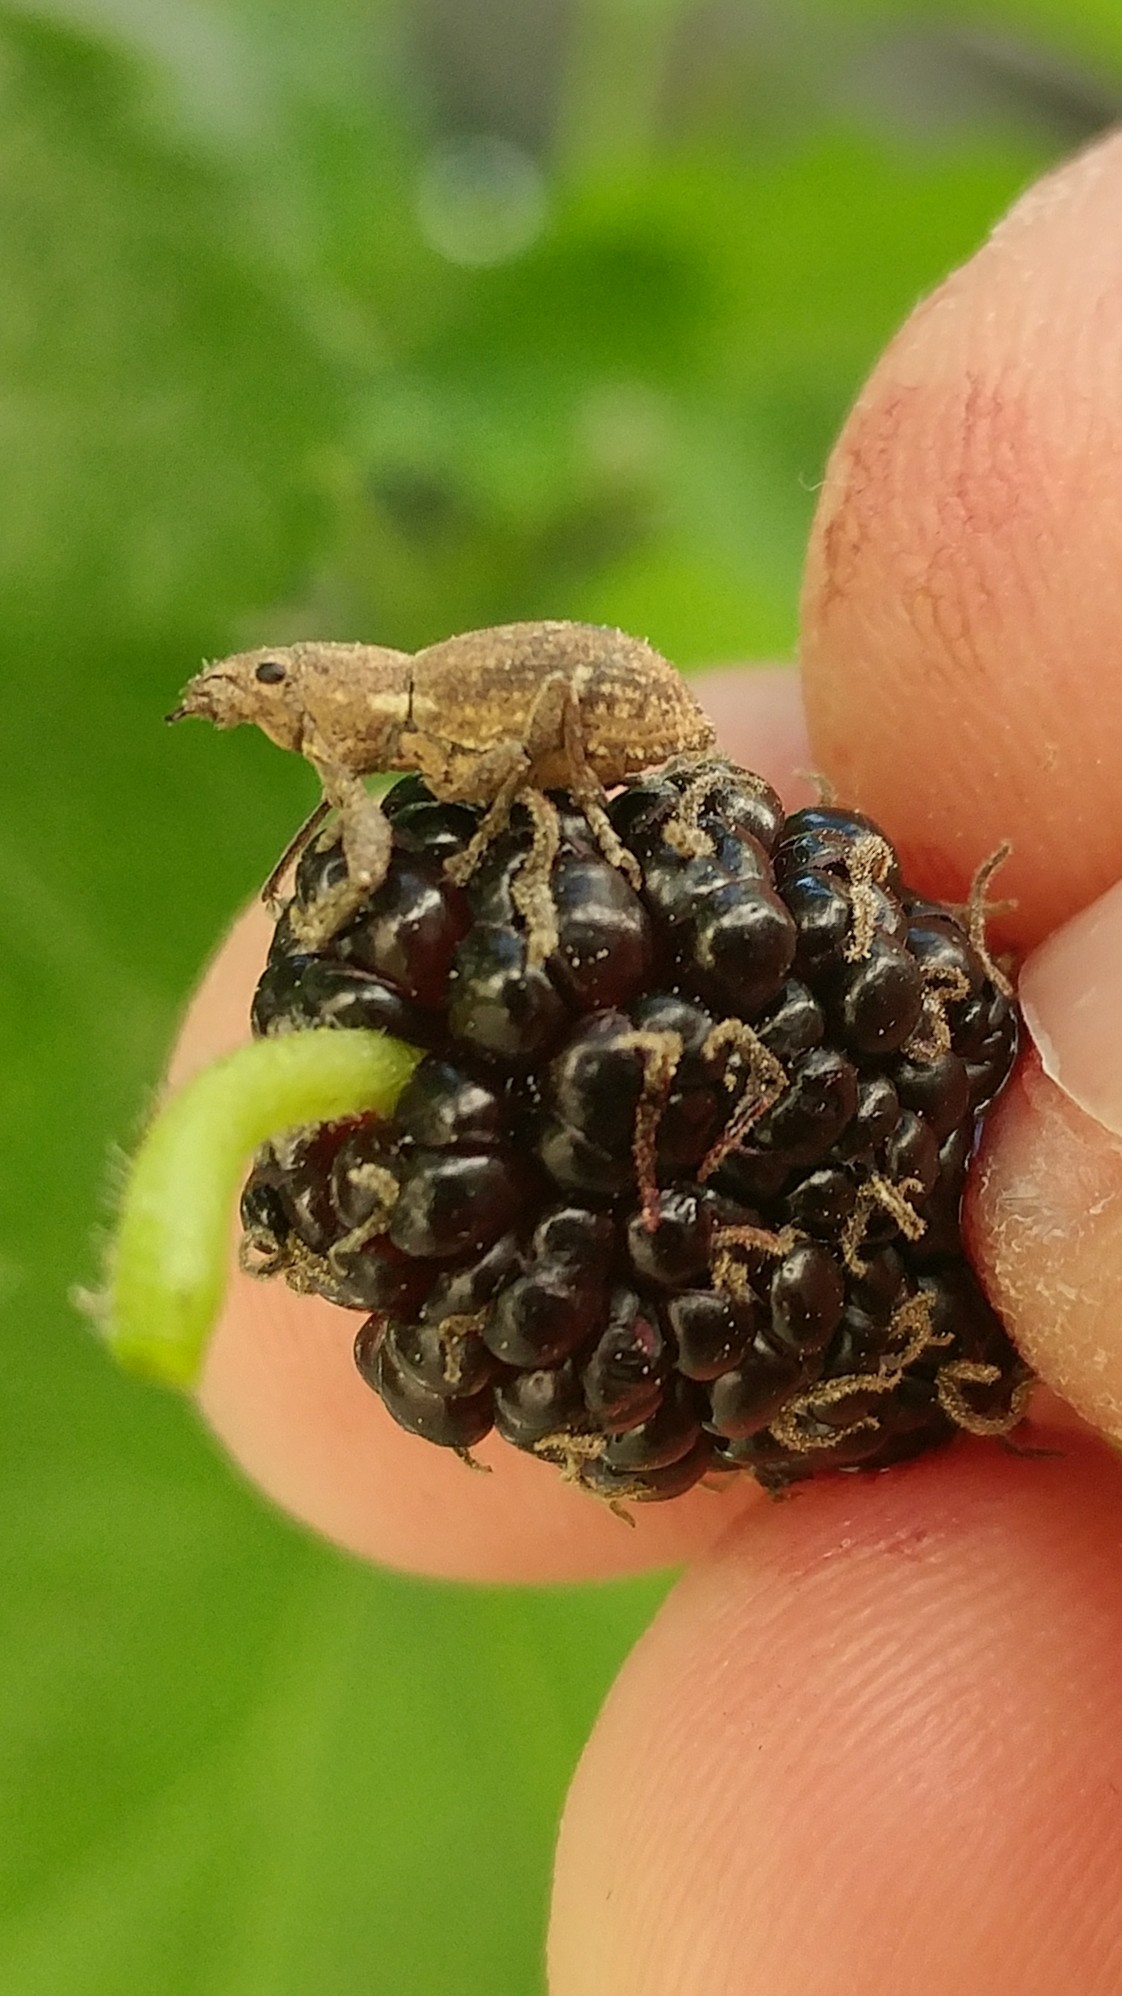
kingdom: Animalia
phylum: Arthropoda
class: Insecta
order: Coleoptera
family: Curculionidae
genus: Naupactus
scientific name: Naupactus cervinus
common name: Fuller rose beetle
